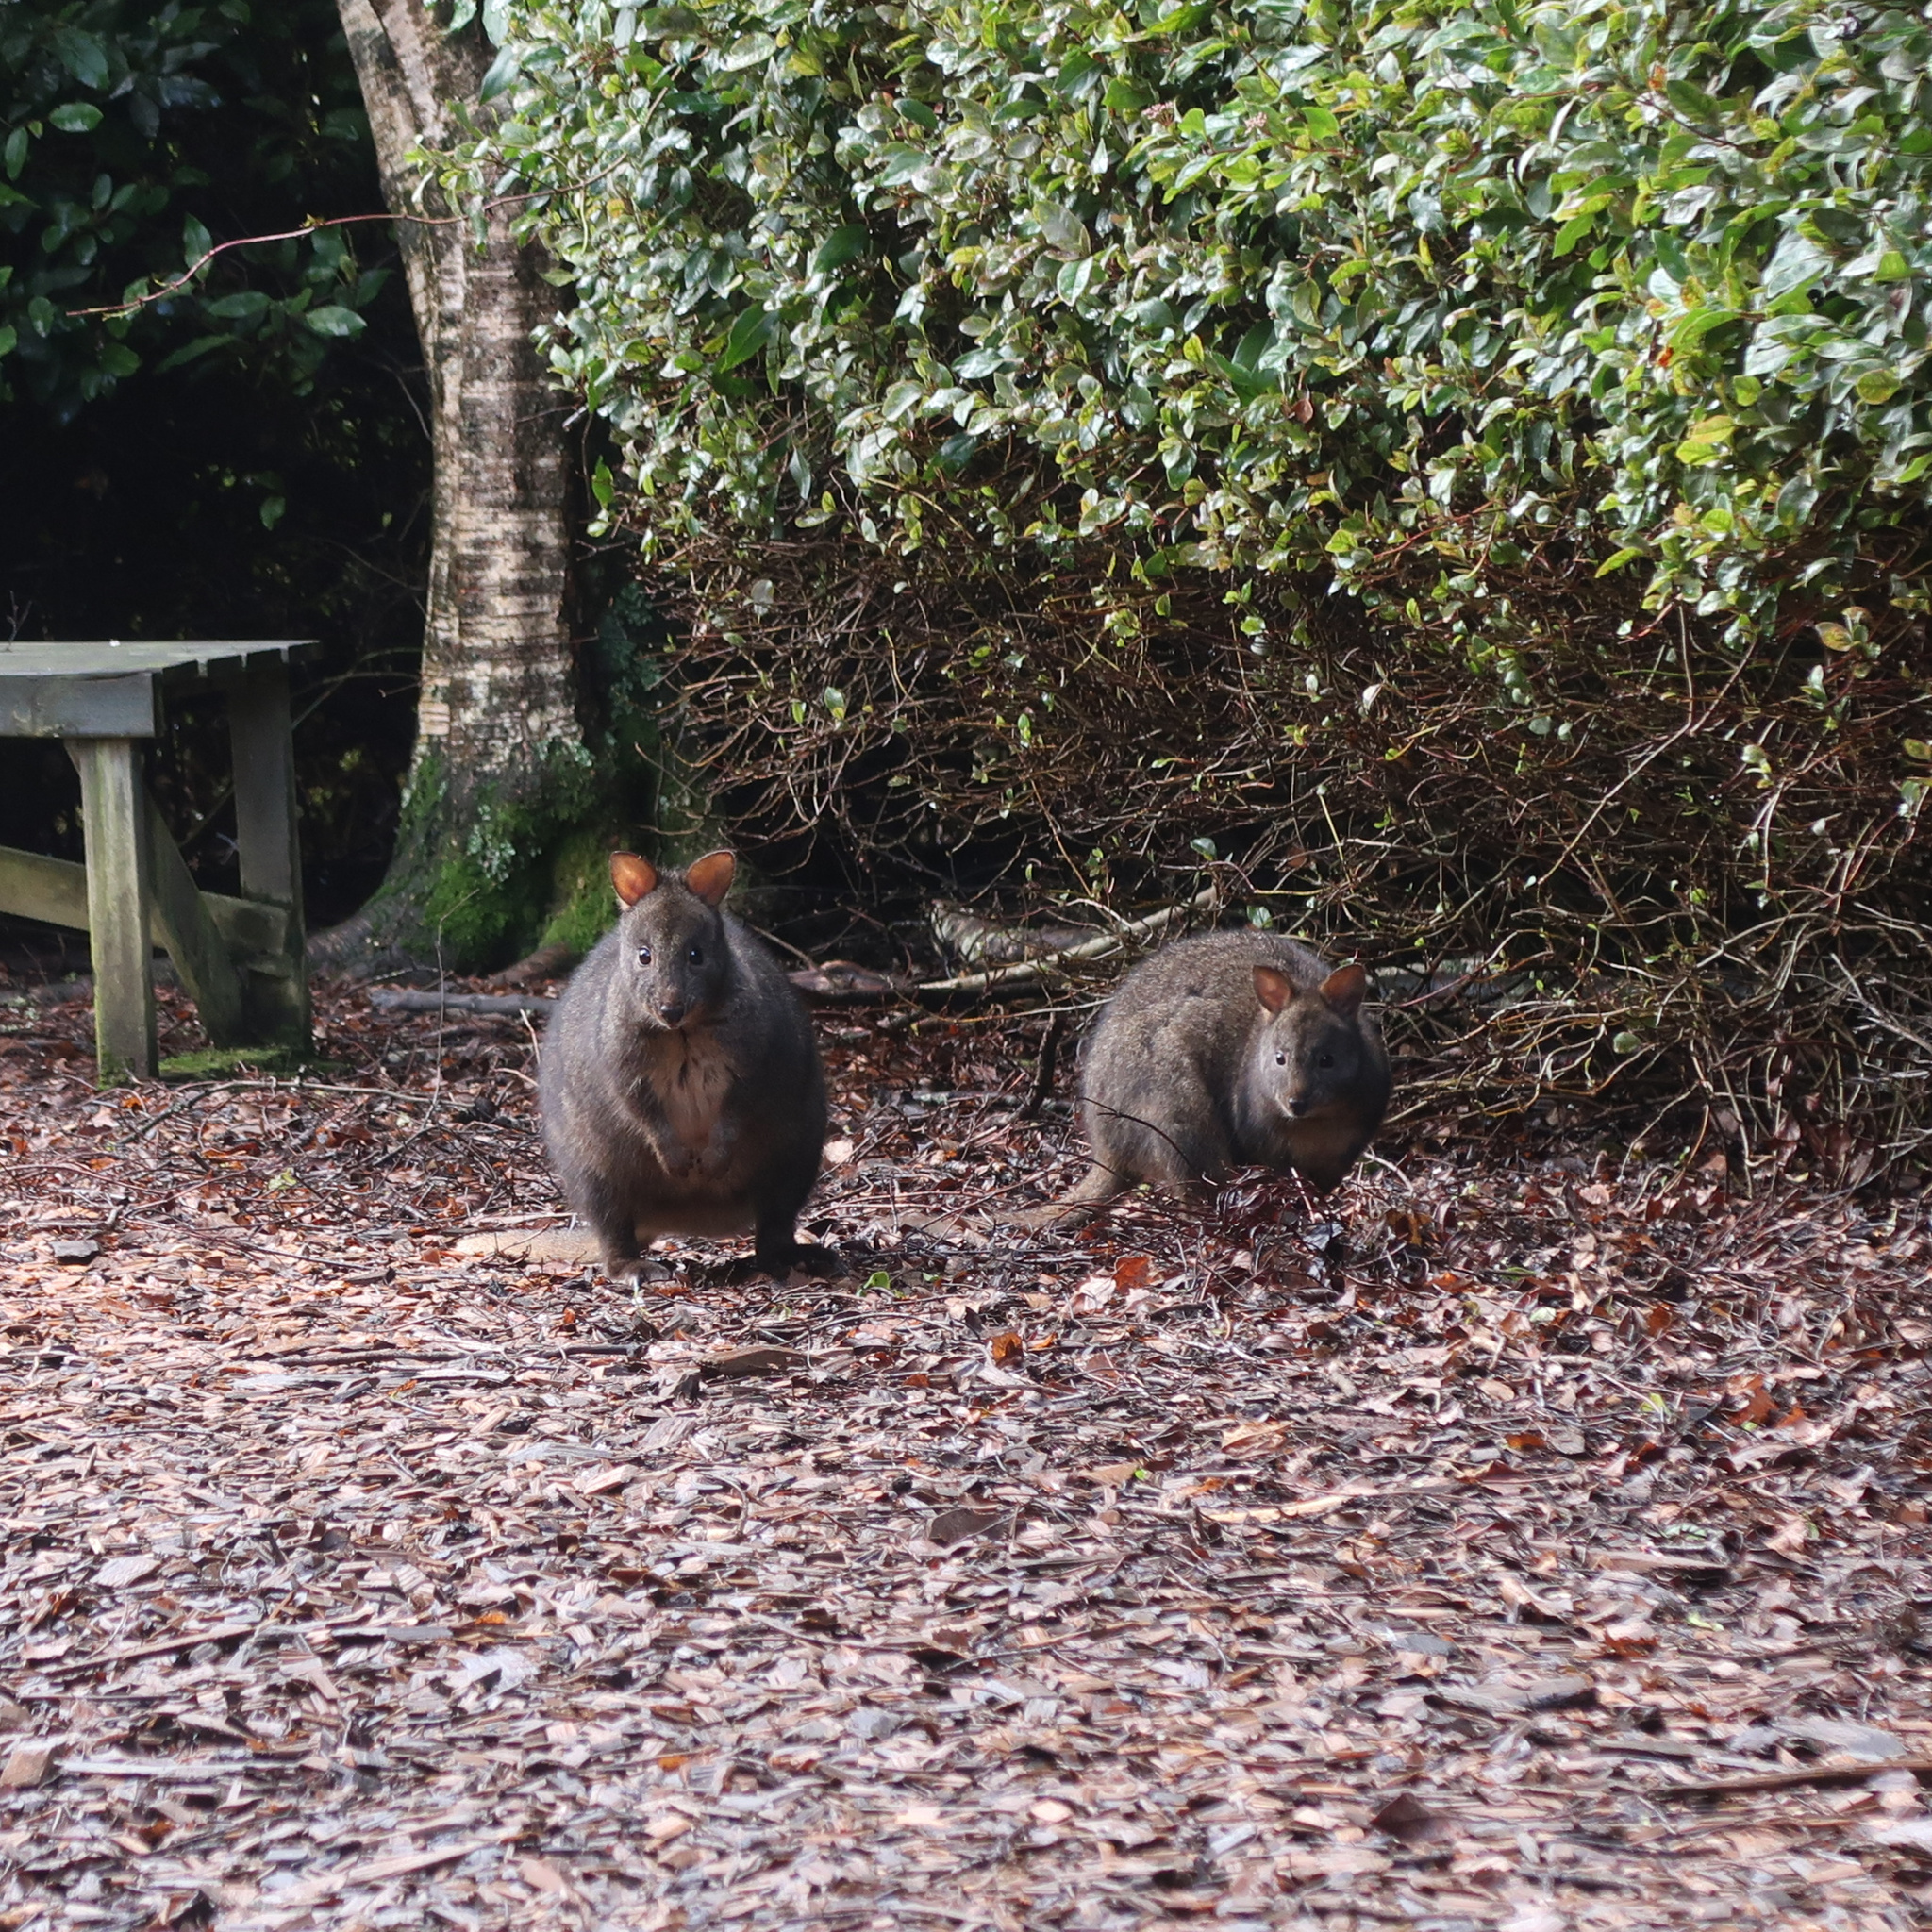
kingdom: Animalia
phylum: Chordata
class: Mammalia
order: Diprotodontia
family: Macropodidae
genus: Thylogale
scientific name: Thylogale billardierii
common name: Tasmanian pademelon
